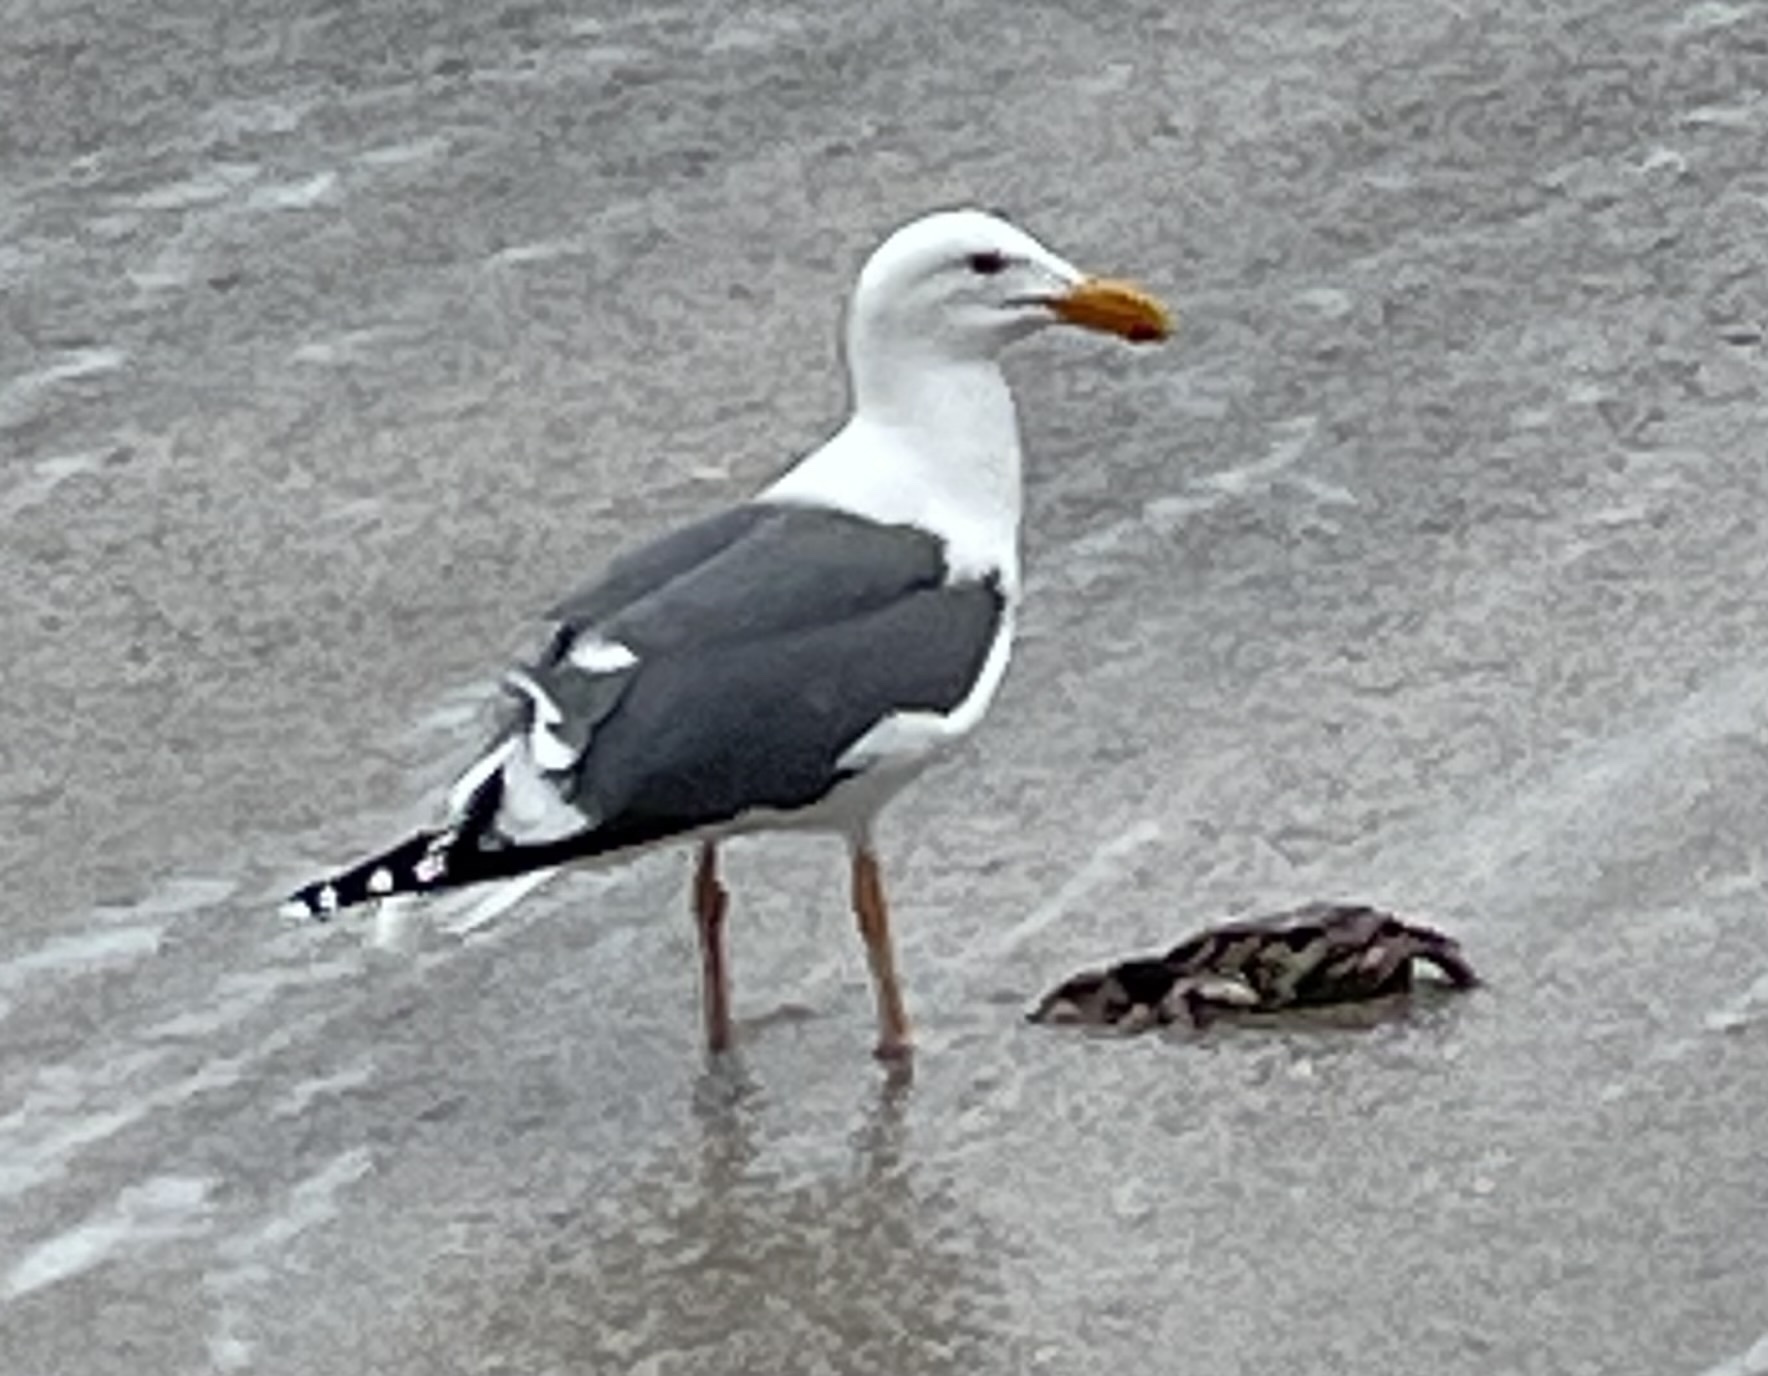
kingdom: Animalia
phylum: Chordata
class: Aves
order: Charadriiformes
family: Laridae
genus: Larus
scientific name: Larus occidentalis
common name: Western gull
